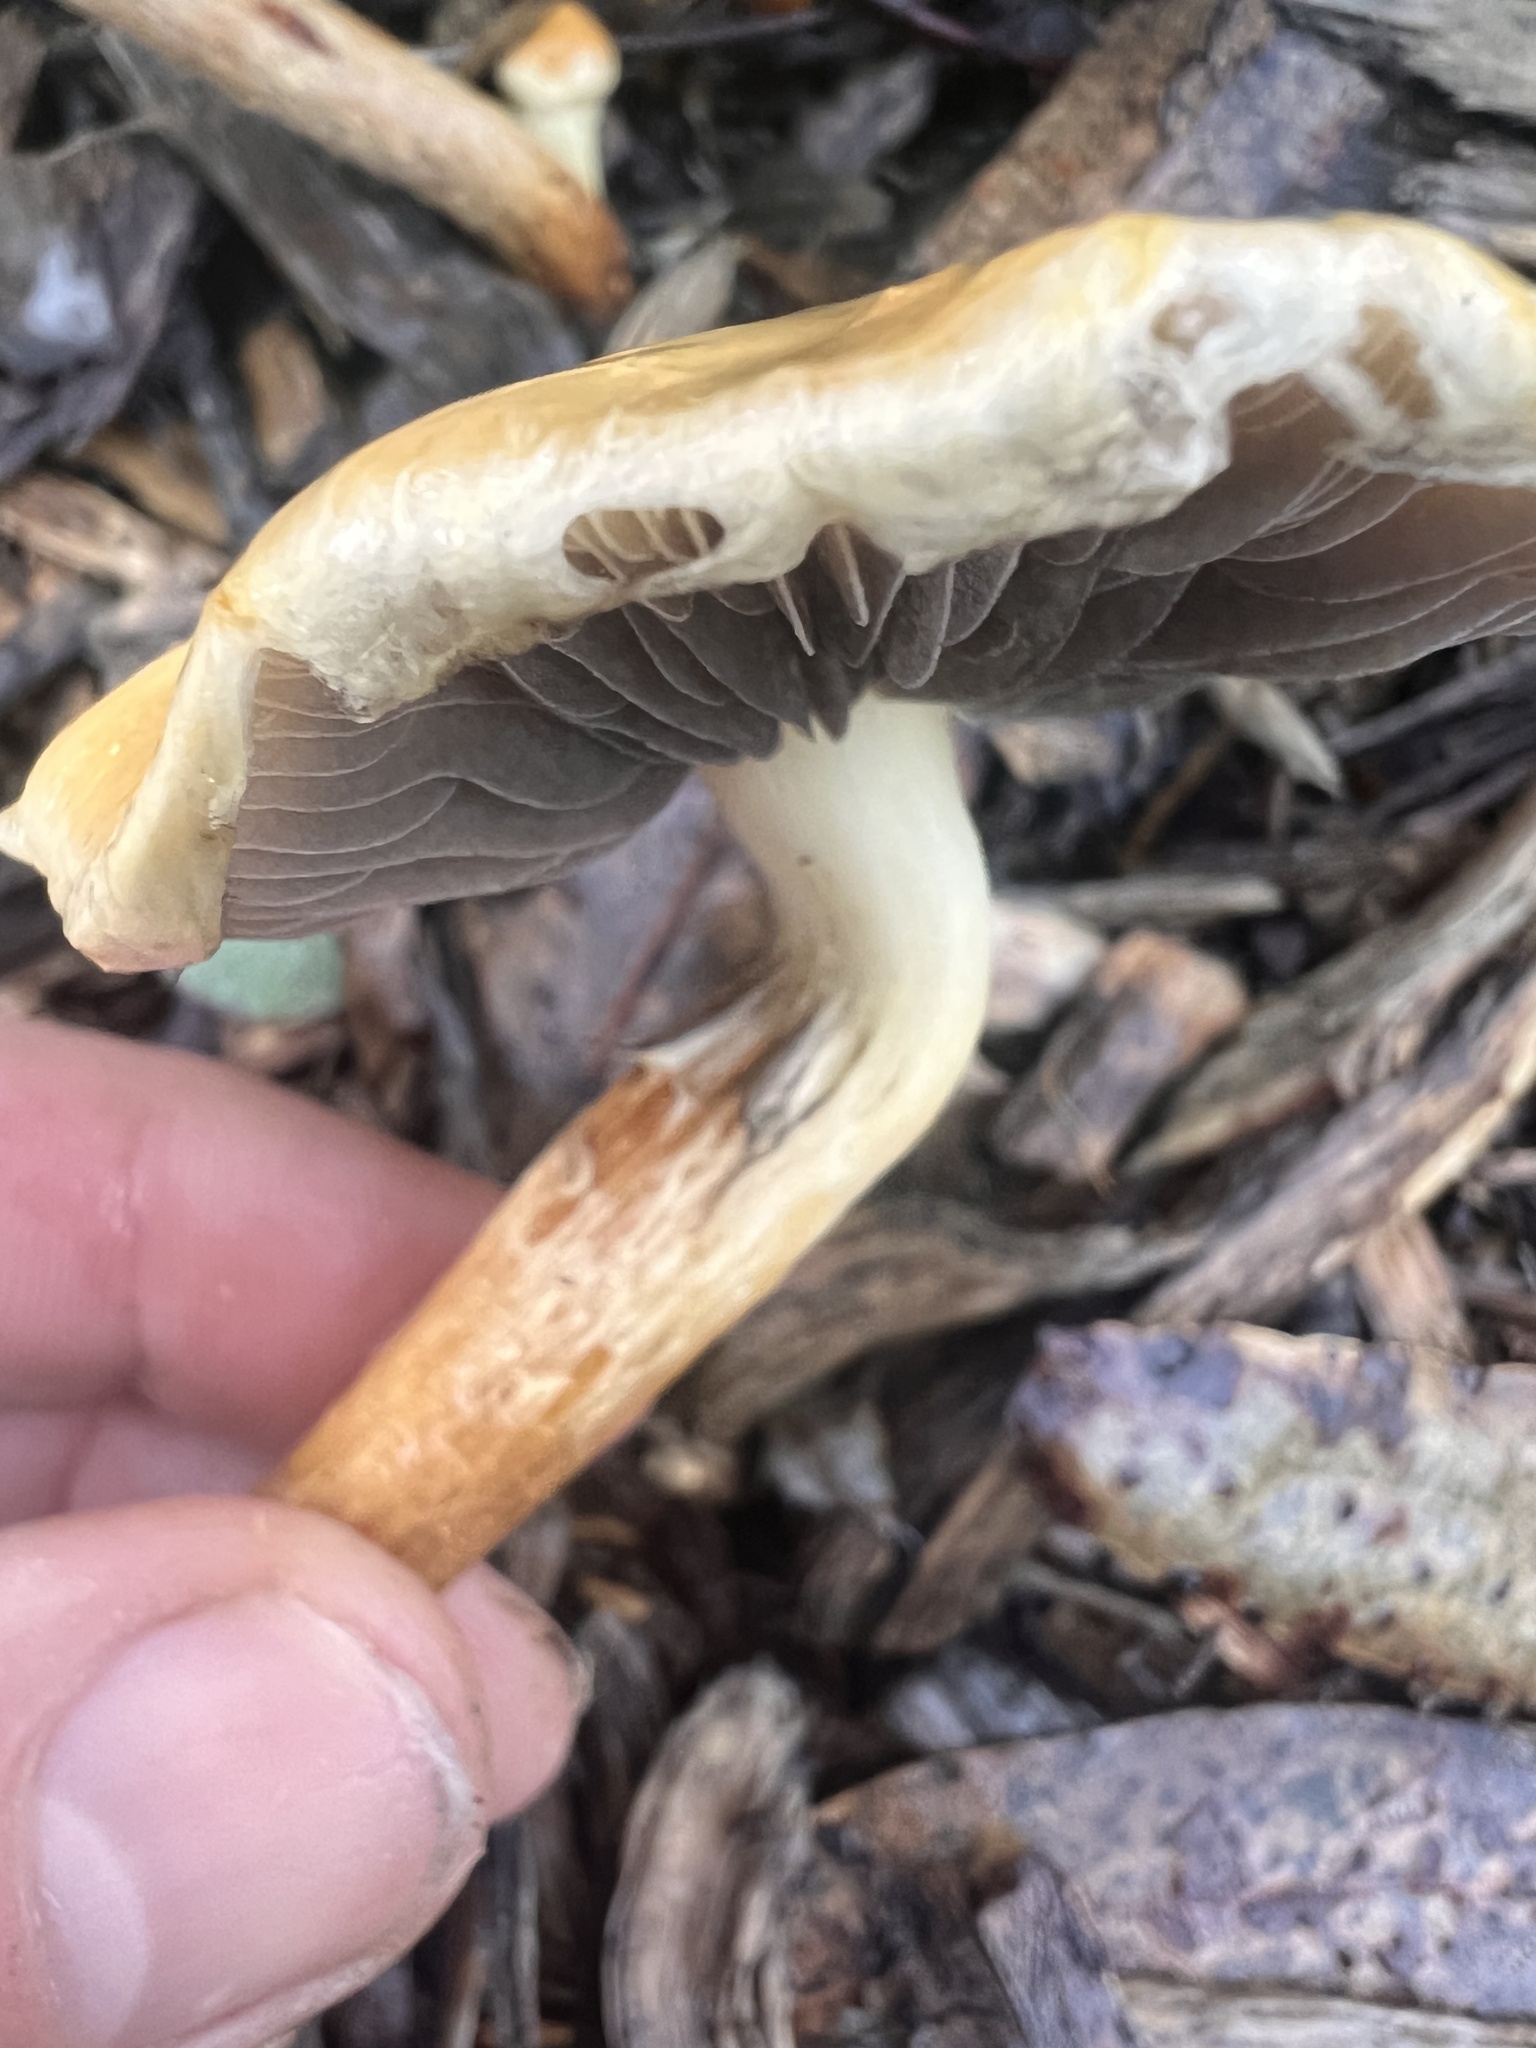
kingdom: Fungi
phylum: Basidiomycota
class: Agaricomycetes
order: Agaricales
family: Strophariaceae
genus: Leratiomyces
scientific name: Leratiomyces percevalii
